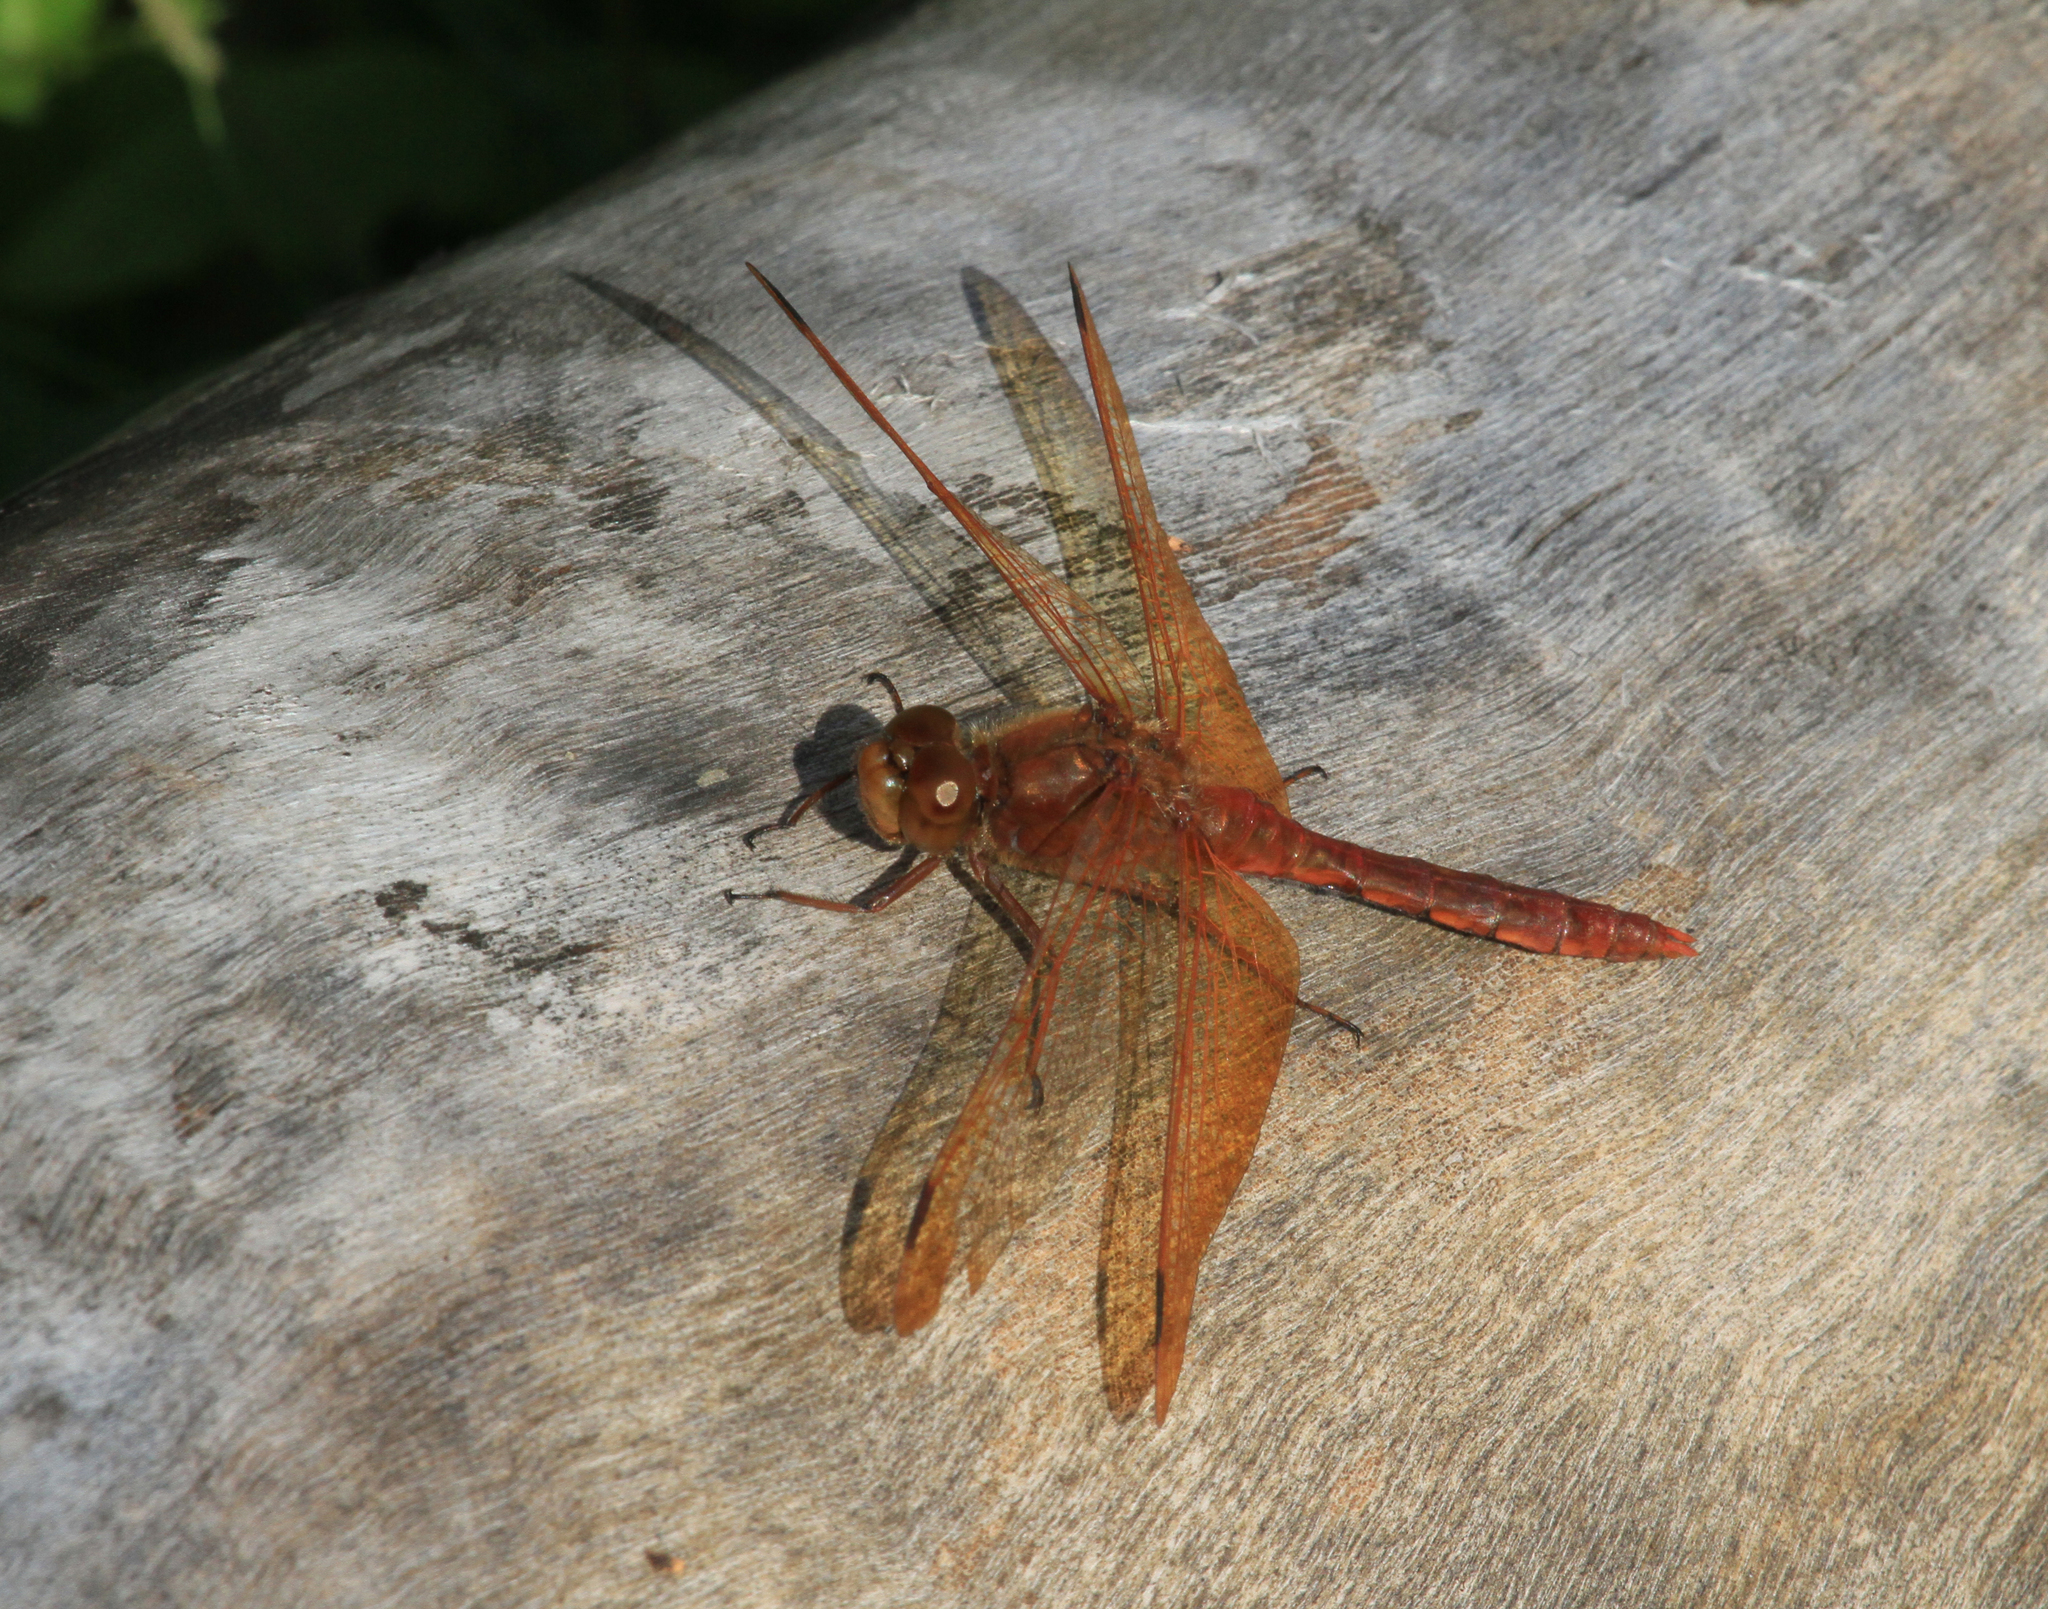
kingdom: Animalia
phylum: Arthropoda
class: Insecta
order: Odonata
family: Libellulidae
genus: Sympetrum
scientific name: Sympetrum croceolum
